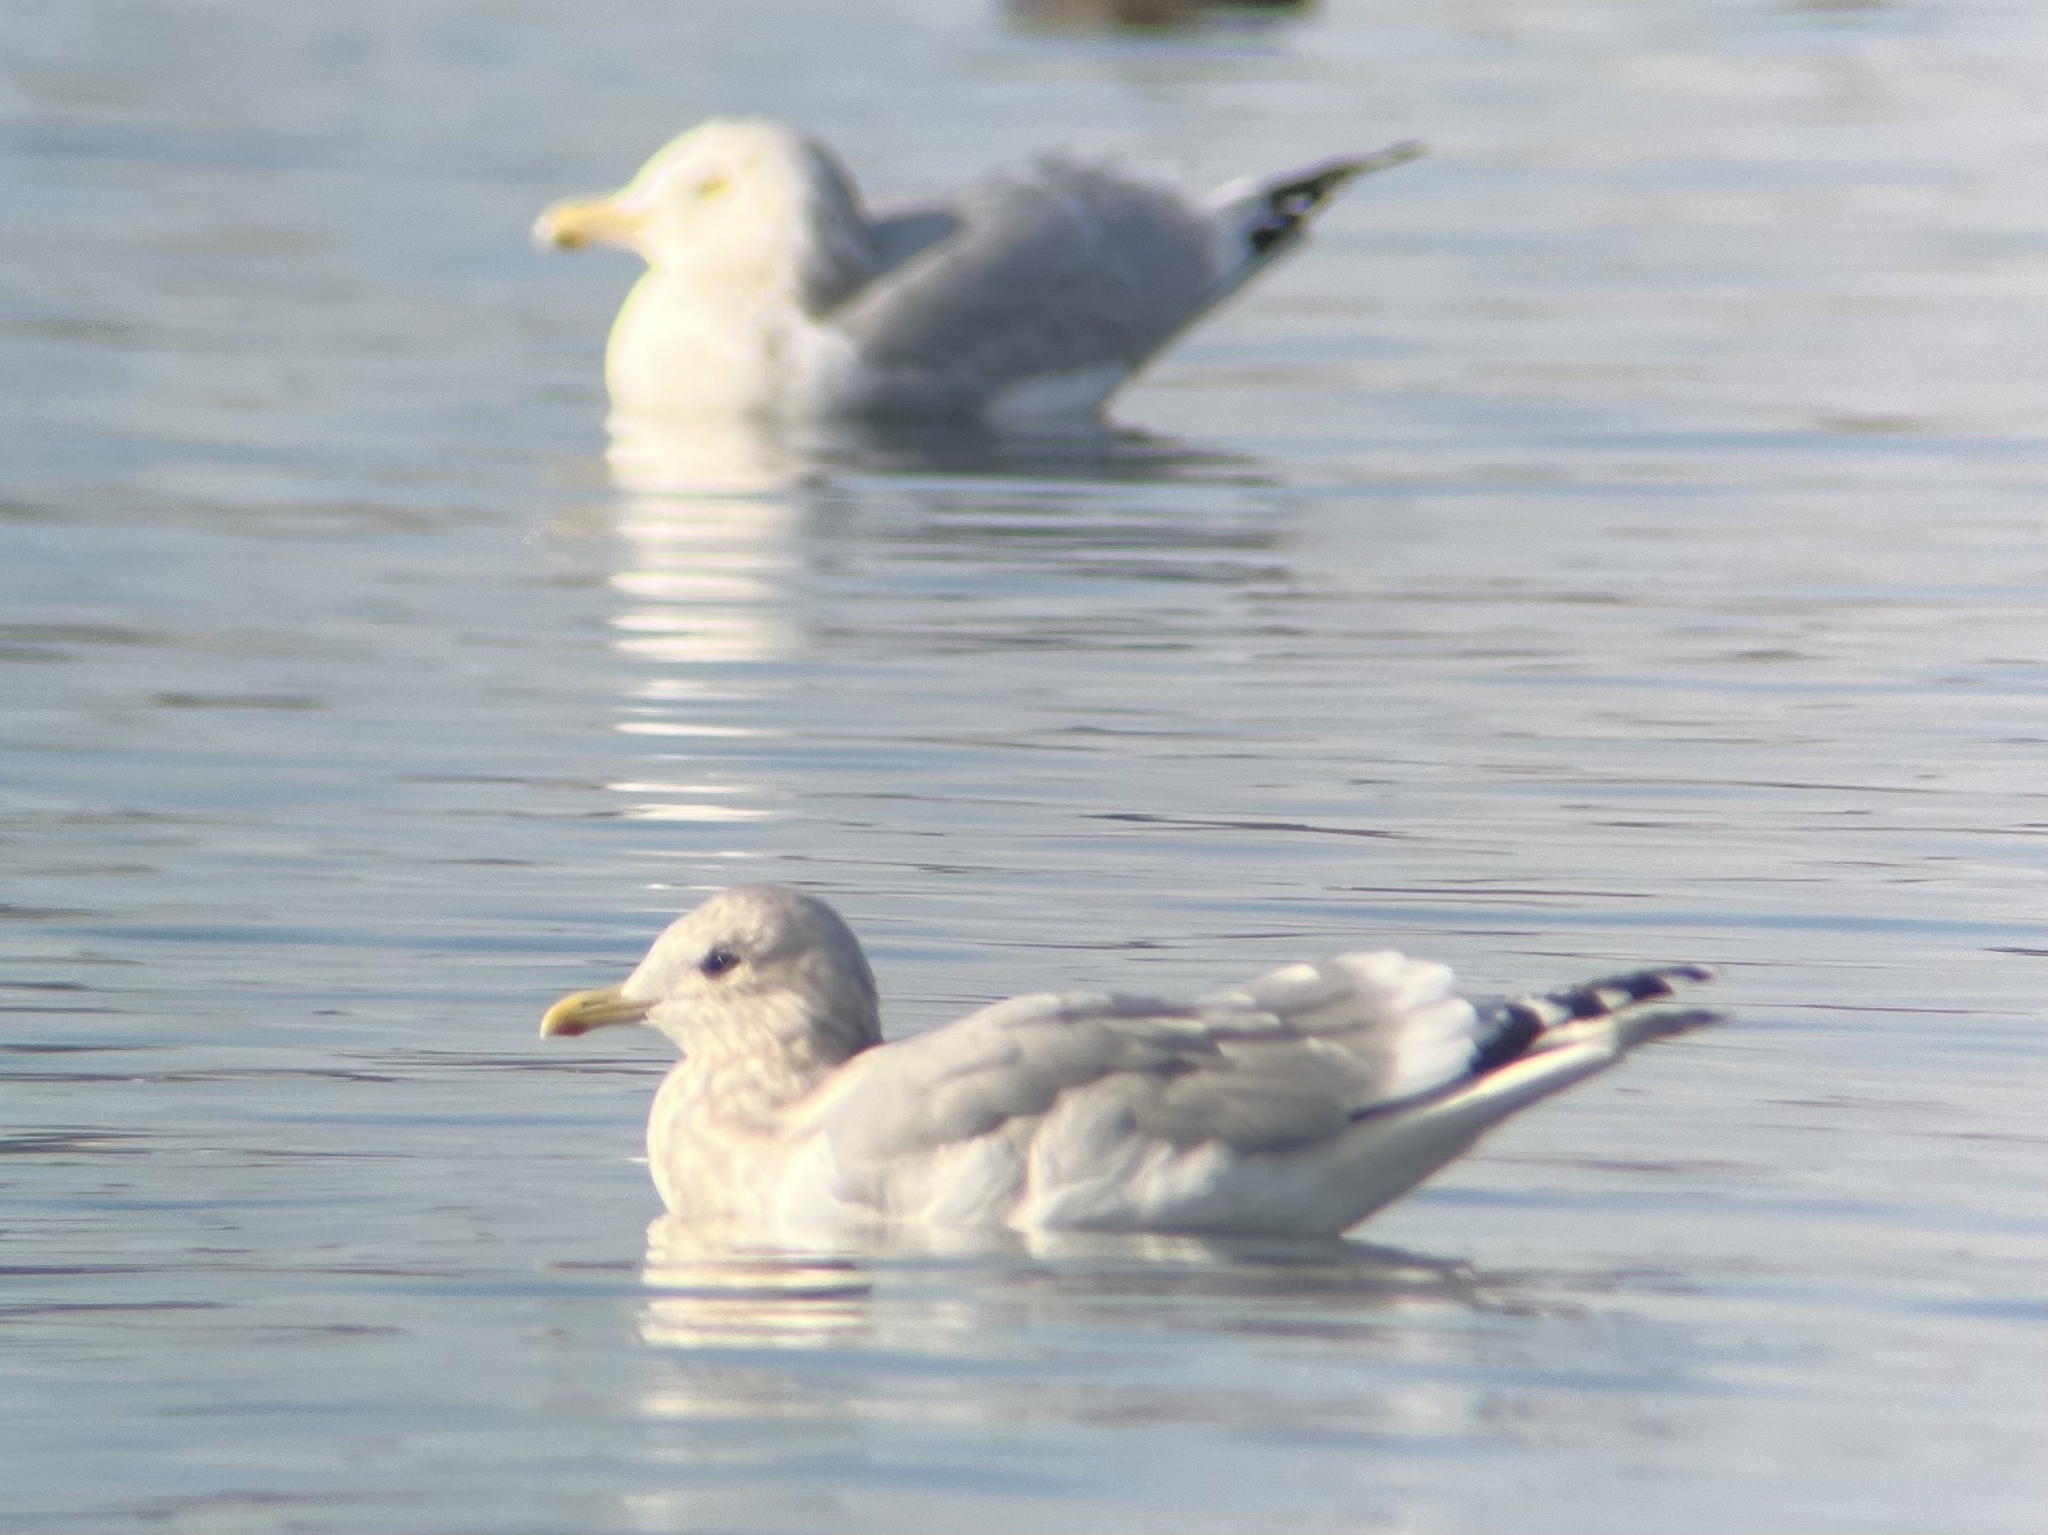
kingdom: Animalia
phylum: Chordata
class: Aves
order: Charadriiformes
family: Laridae
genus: Larus
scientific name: Larus glaucoides
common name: Iceland gull
